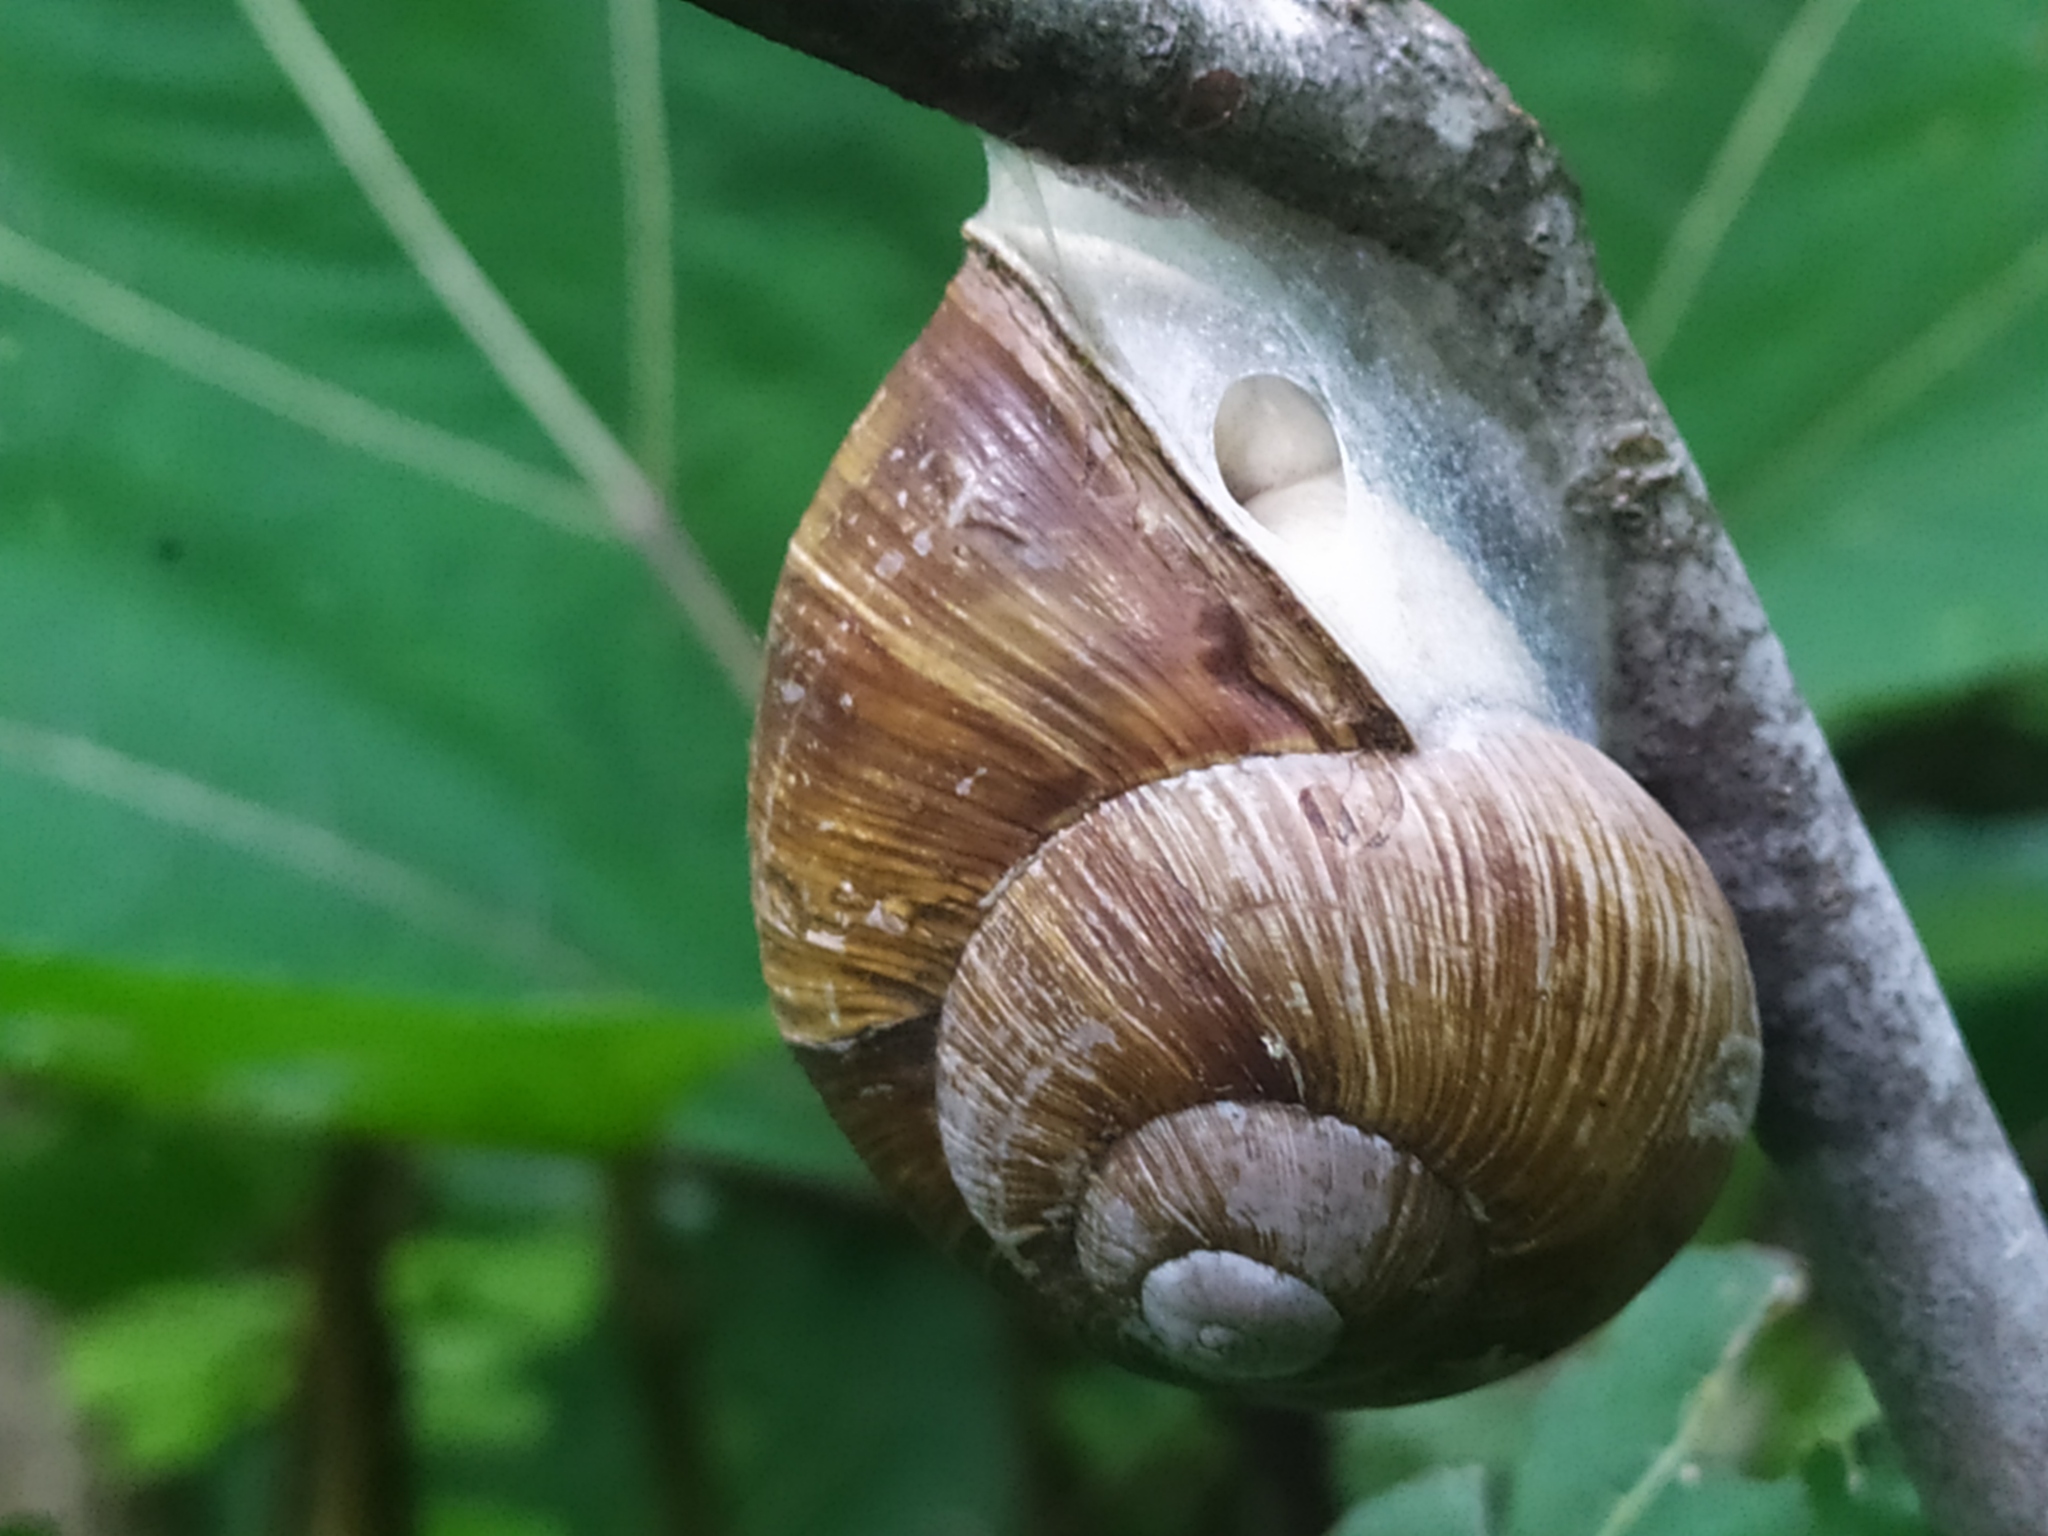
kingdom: Animalia
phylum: Mollusca
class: Gastropoda
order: Stylommatophora
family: Helicidae
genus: Helix
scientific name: Helix pomatia
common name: Roman snail
